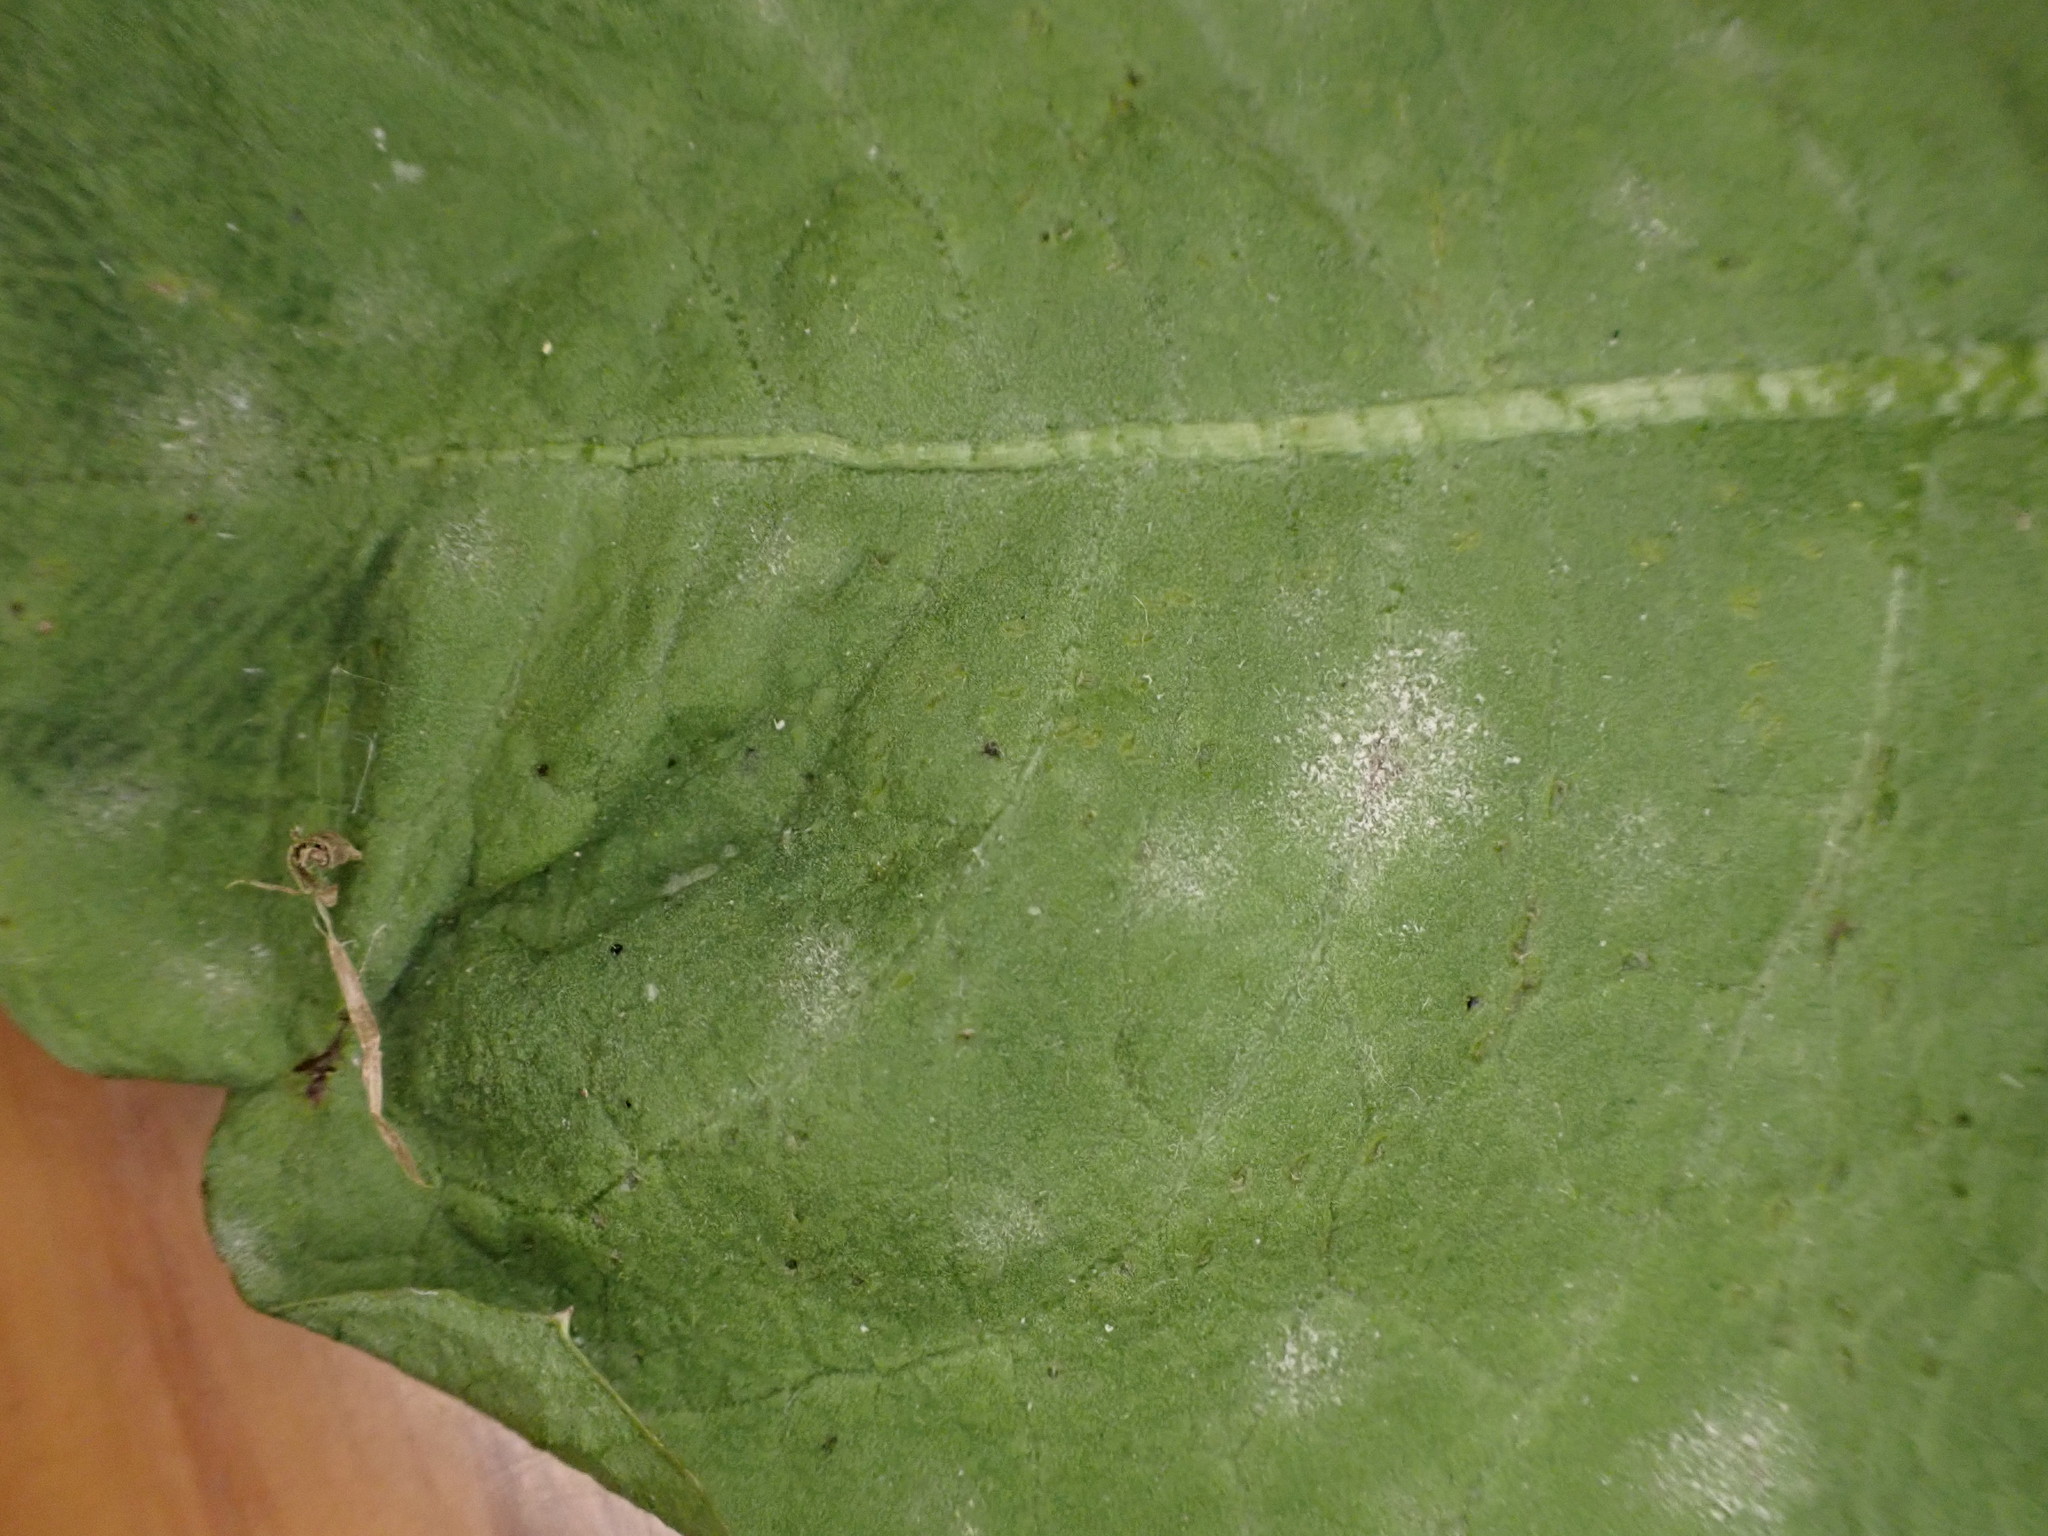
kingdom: Fungi
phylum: Ascomycota
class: Leotiomycetes
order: Helotiales
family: Erysiphaceae
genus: Podosphaera
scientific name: Podosphaera erigerontis-canadensis
